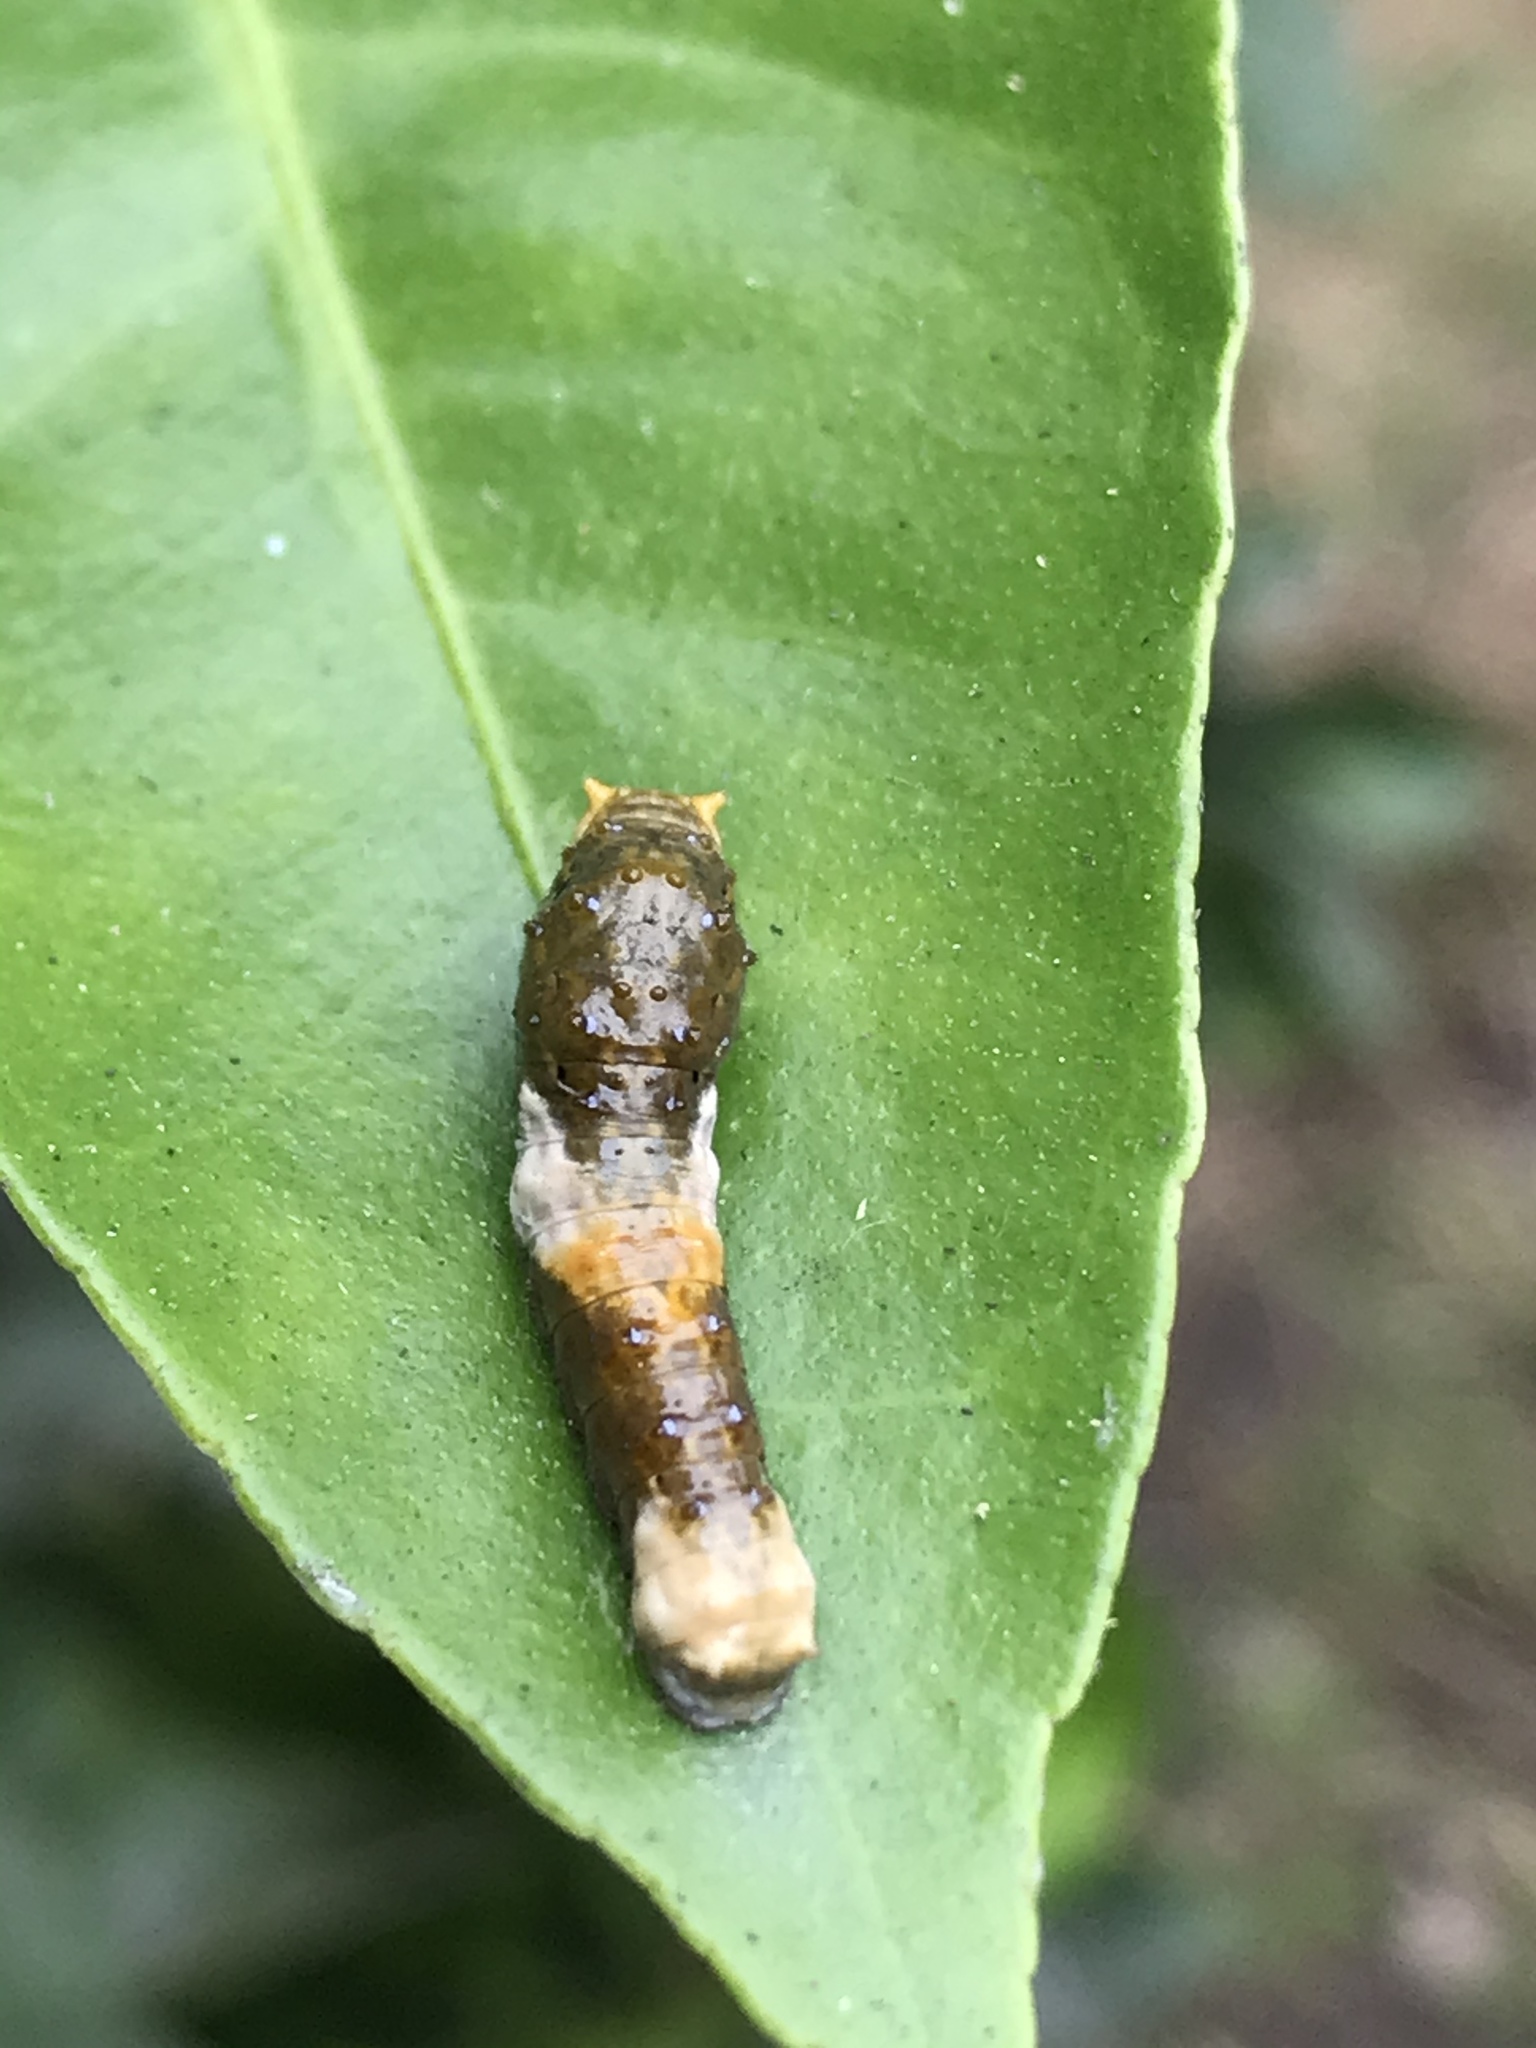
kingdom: Animalia
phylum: Arthropoda
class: Insecta
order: Lepidoptera
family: Papilionidae
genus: Papilio
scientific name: Papilio rumiko
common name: Western giant swallowtail
